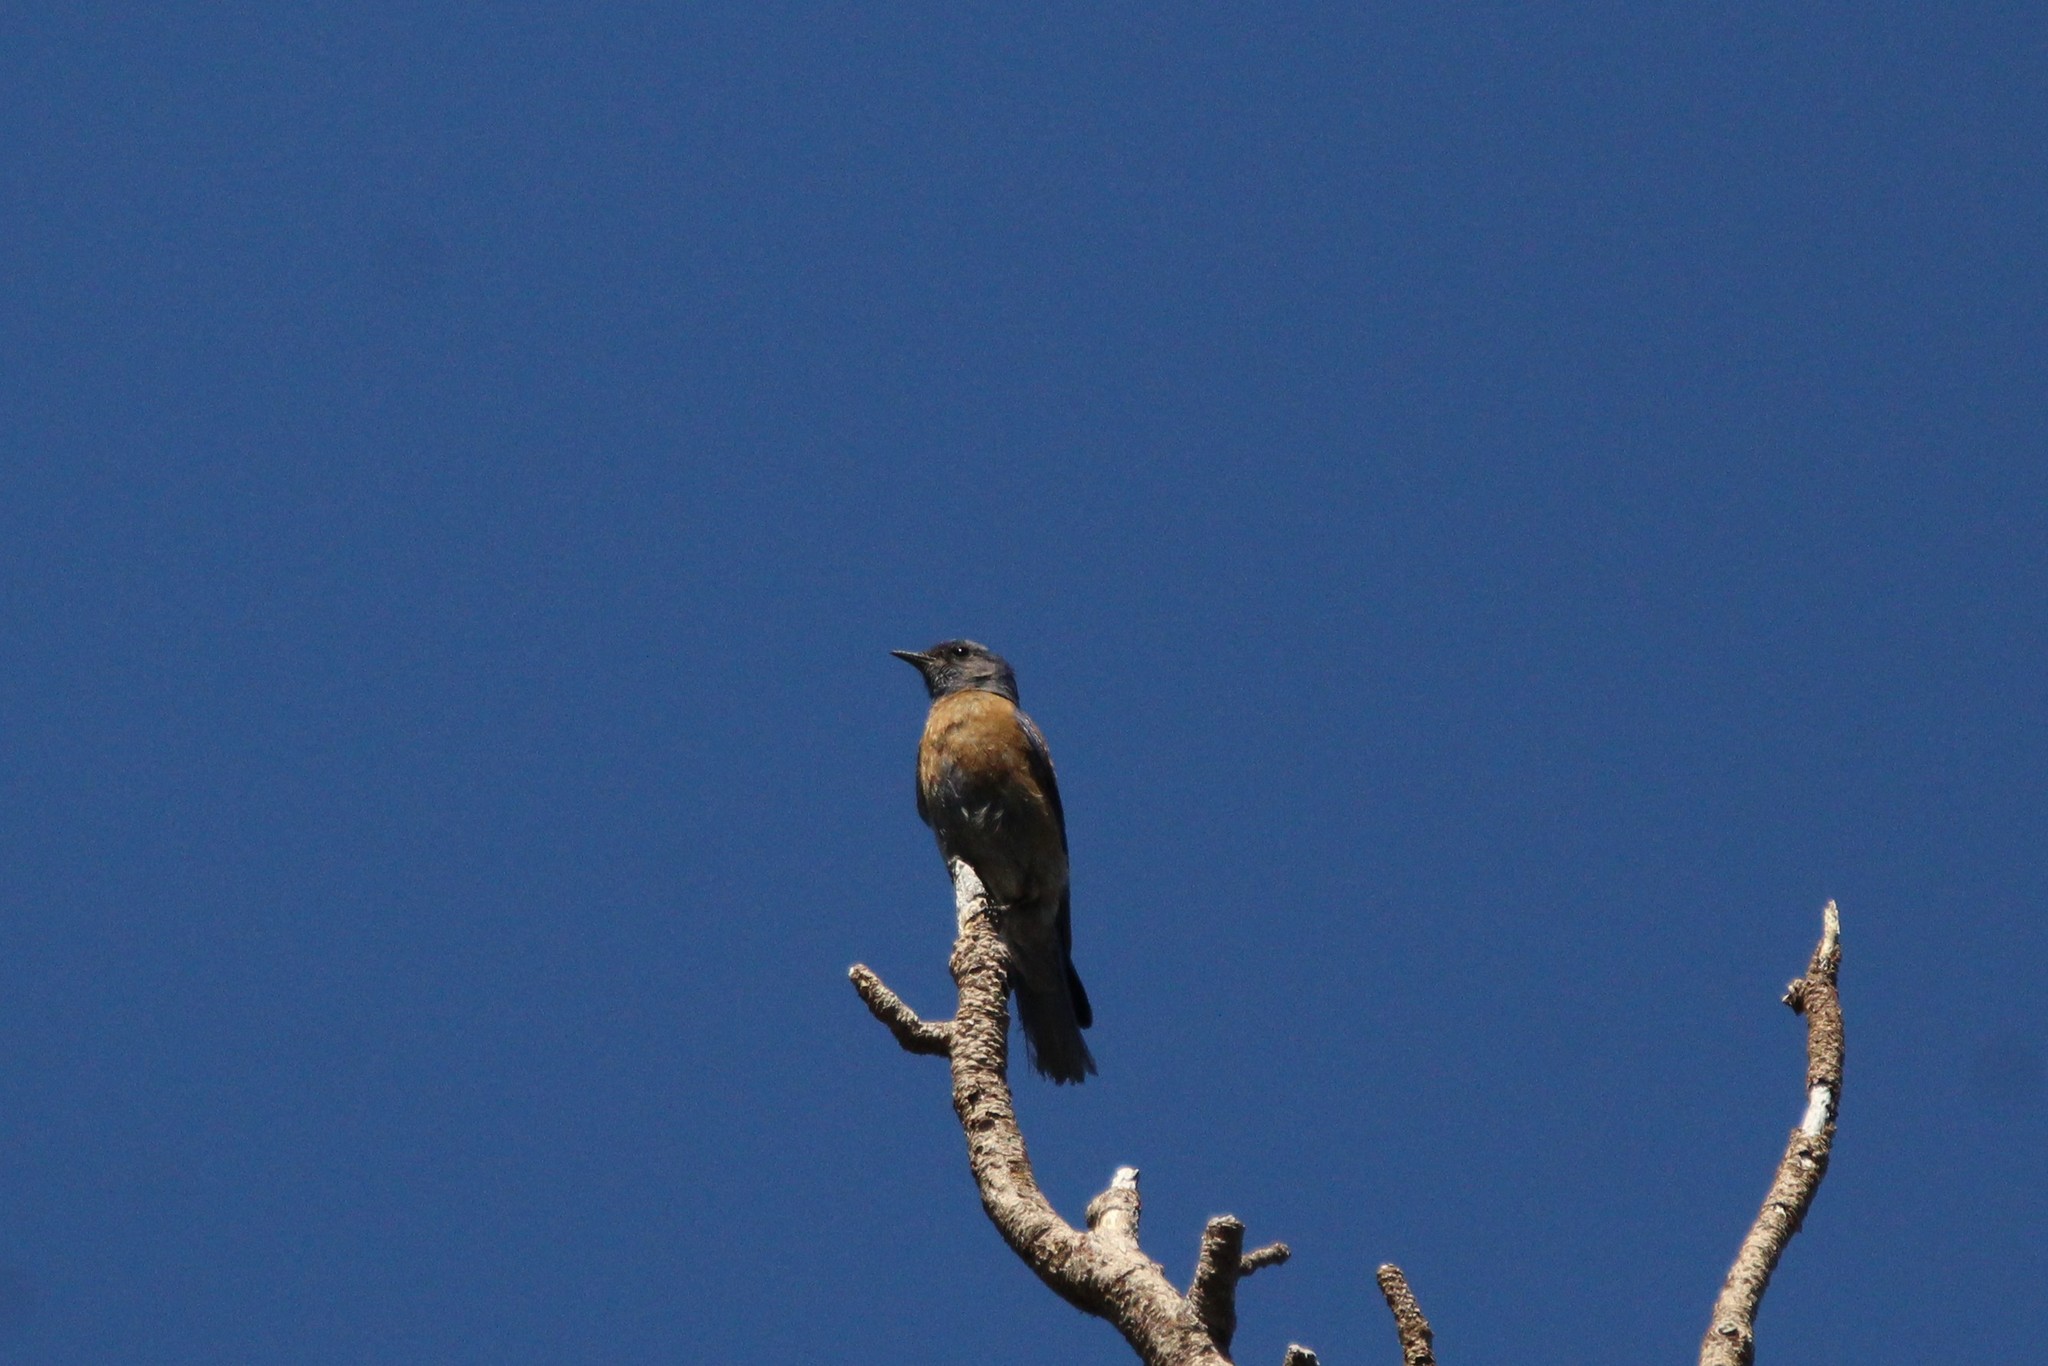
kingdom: Animalia
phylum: Chordata
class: Aves
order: Passeriformes
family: Turdidae
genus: Sialia
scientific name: Sialia mexicana
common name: Western bluebird
